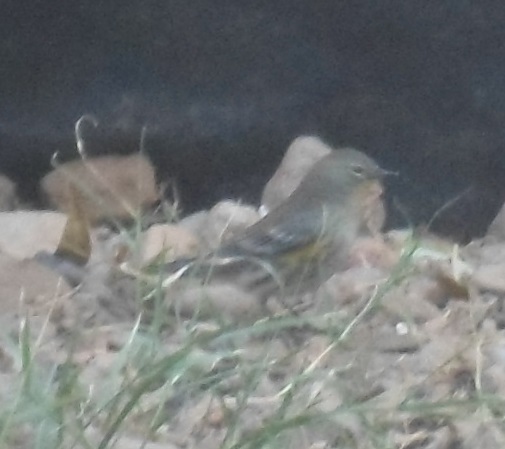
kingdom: Animalia
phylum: Chordata
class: Aves
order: Passeriformes
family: Parulidae
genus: Setophaga
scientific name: Setophaga coronata
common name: Myrtle warbler
